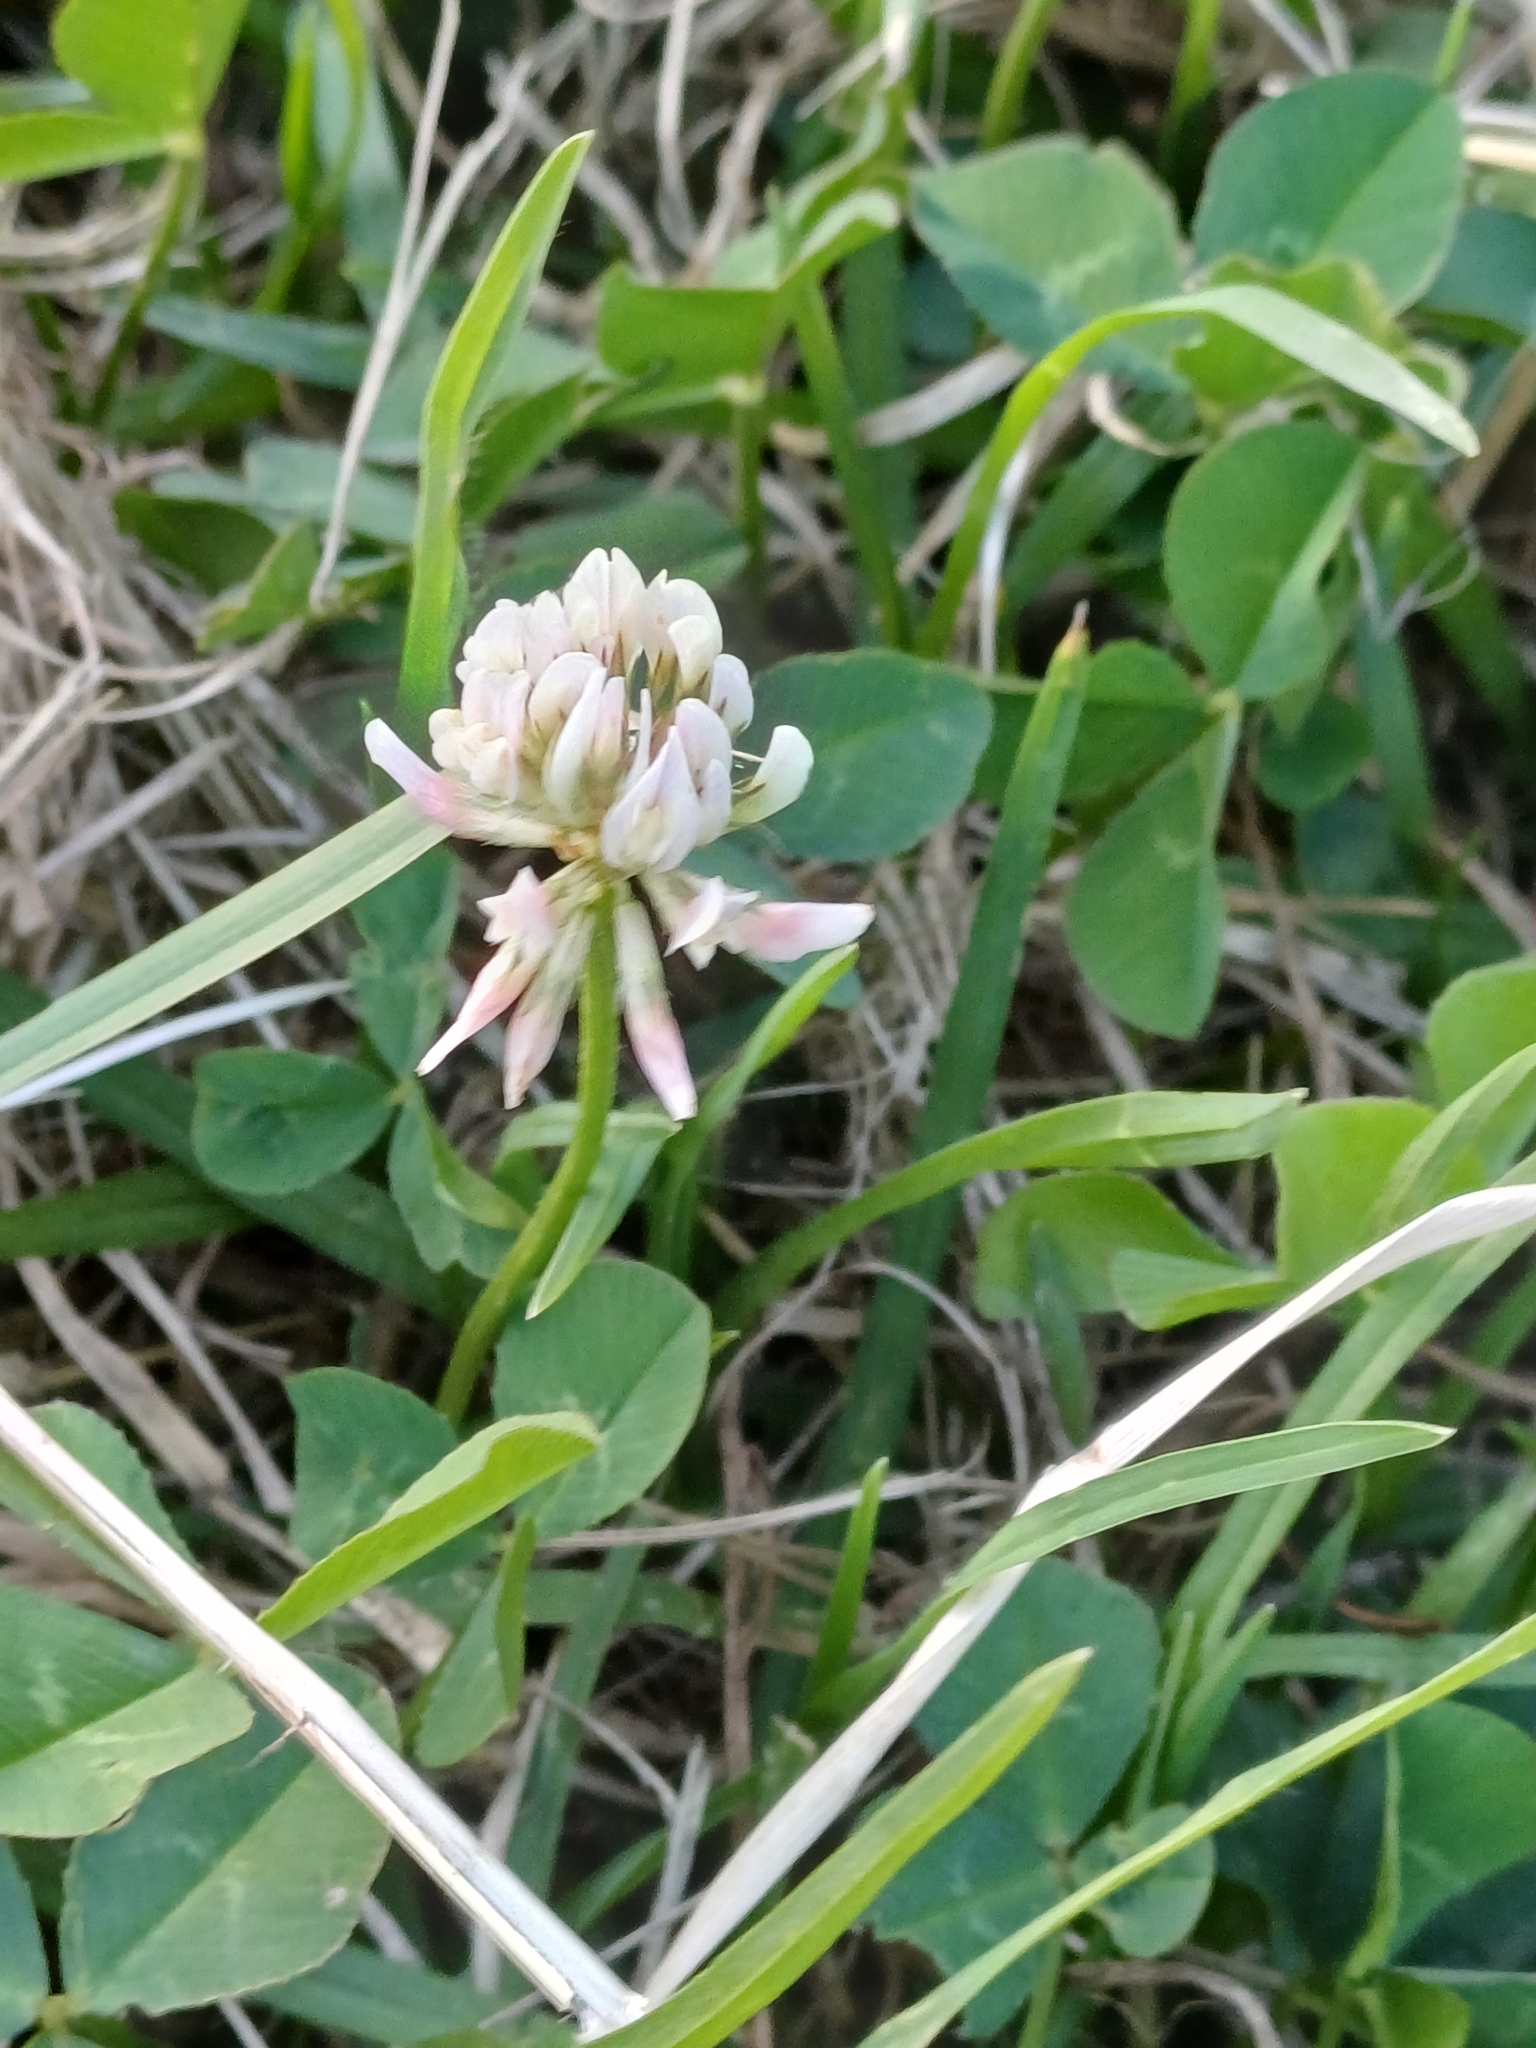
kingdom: Plantae
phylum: Tracheophyta
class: Magnoliopsida
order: Fabales
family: Fabaceae
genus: Trifolium
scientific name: Trifolium repens
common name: White clover
